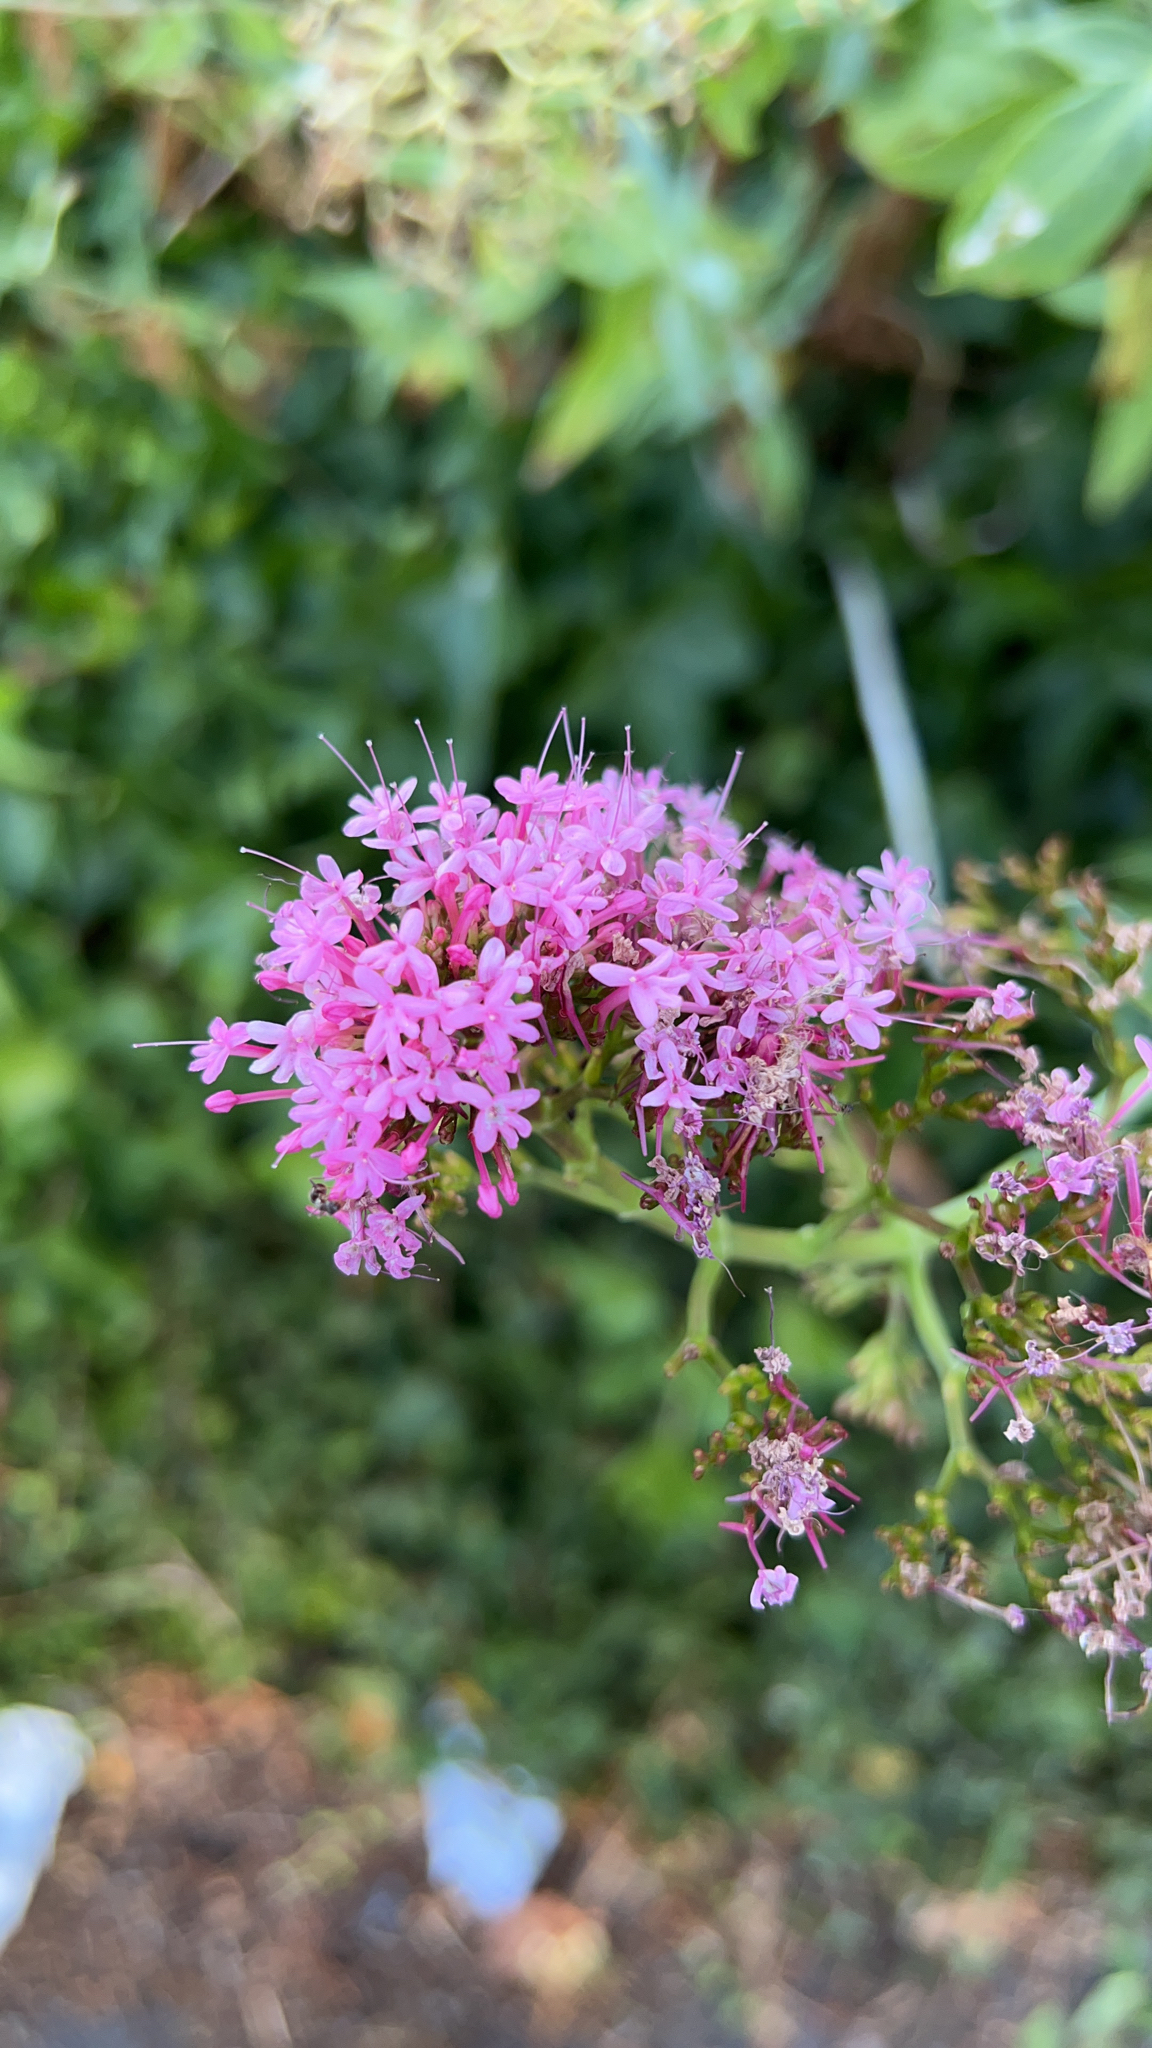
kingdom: Plantae
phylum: Tracheophyta
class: Magnoliopsida
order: Dipsacales
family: Caprifoliaceae
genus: Centranthus
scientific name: Centranthus ruber
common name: Red valerian
